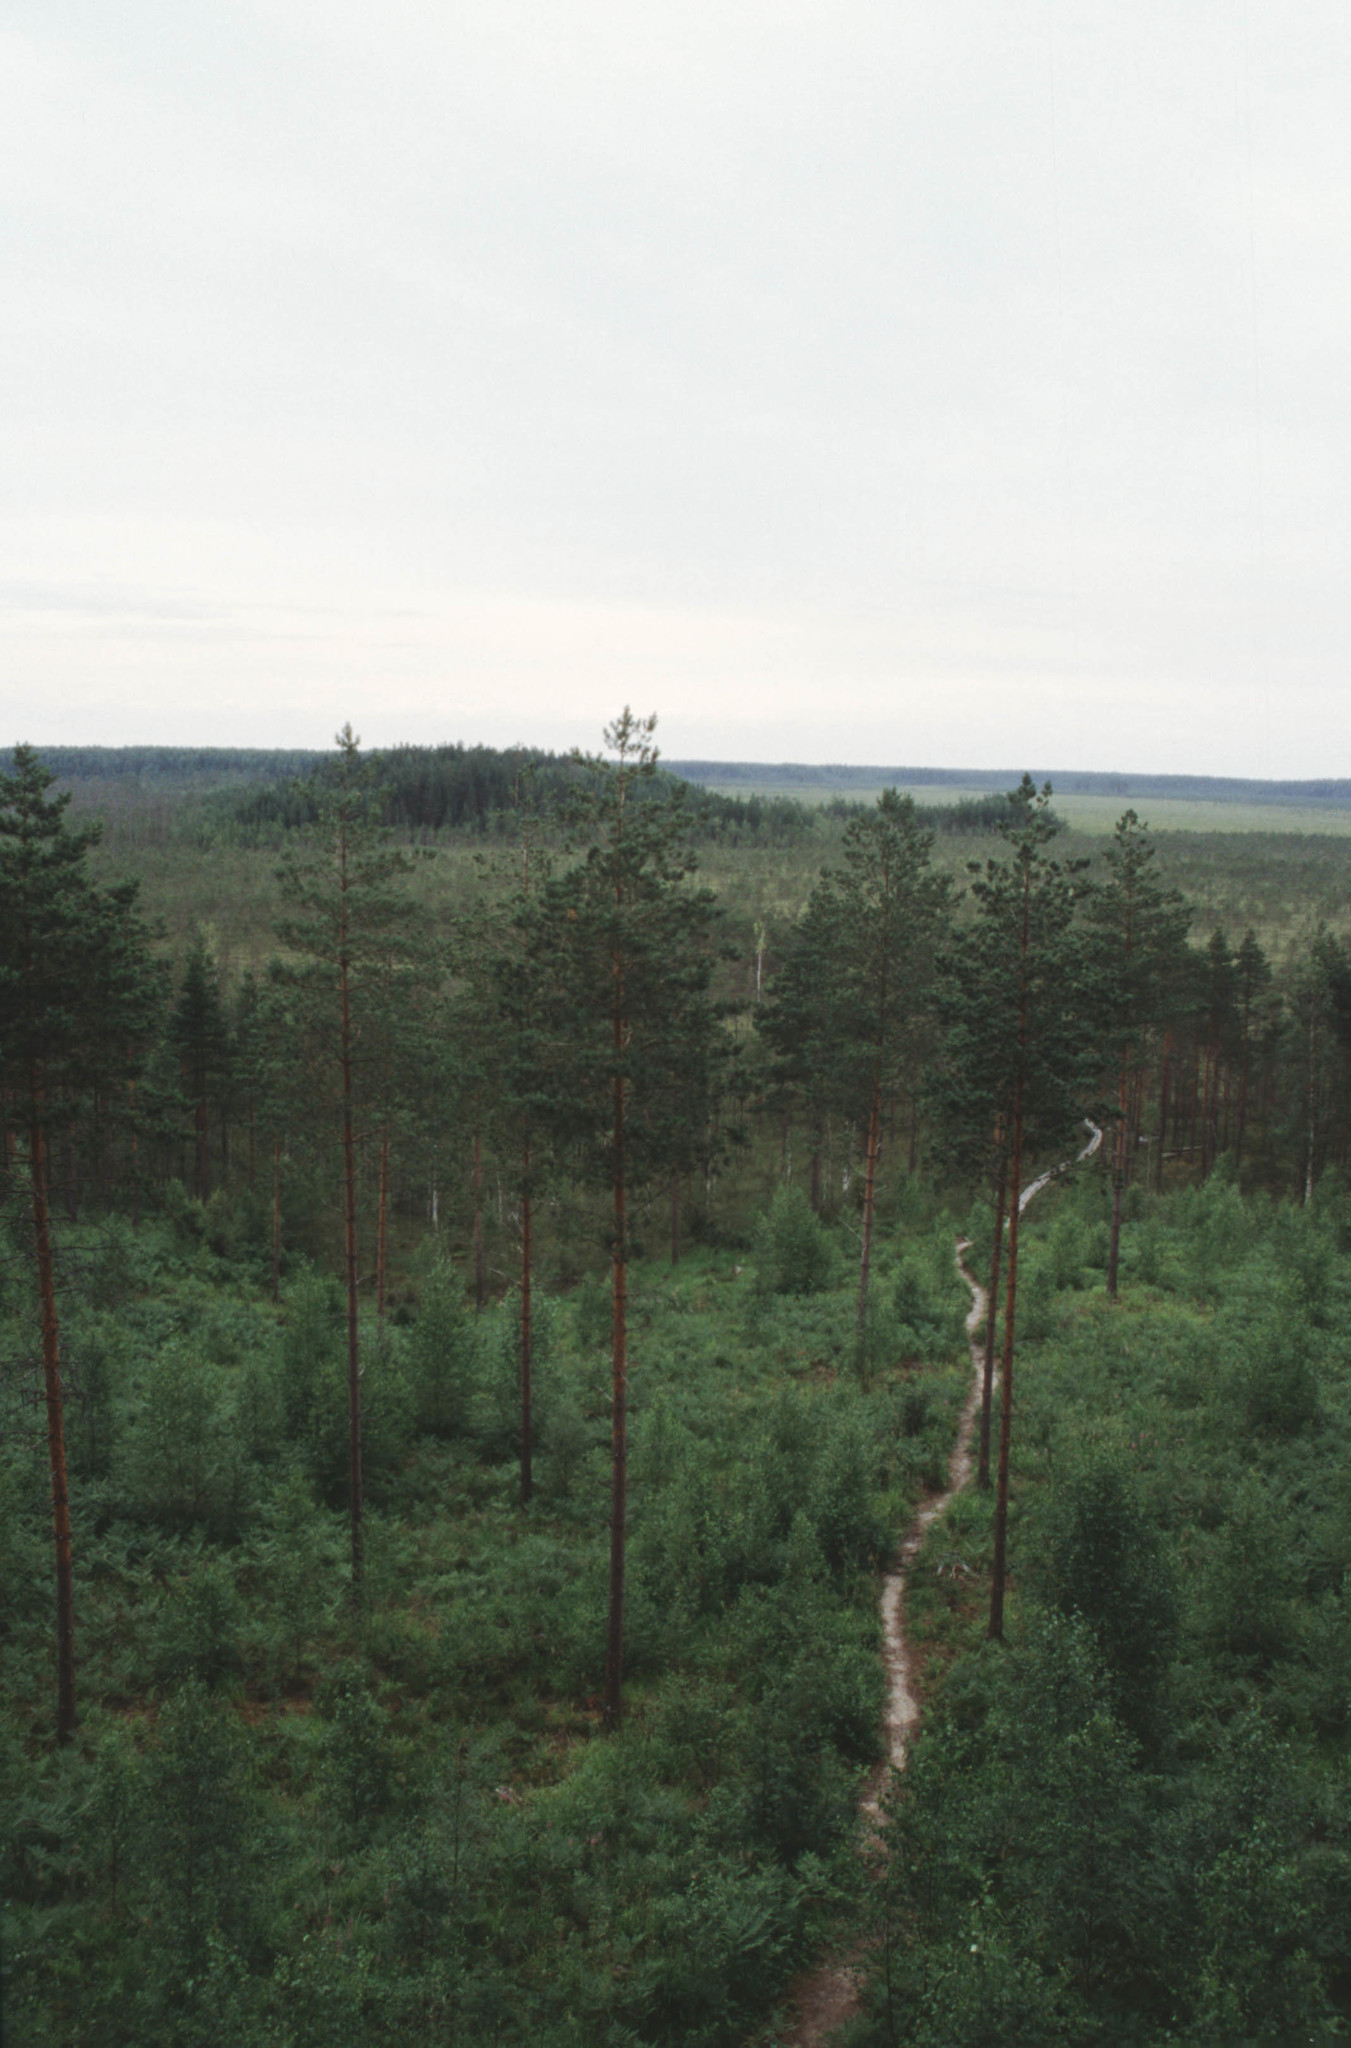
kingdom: Plantae
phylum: Tracheophyta
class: Pinopsida
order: Pinales
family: Pinaceae
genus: Pinus
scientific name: Pinus sylvestris
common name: Scots pine
